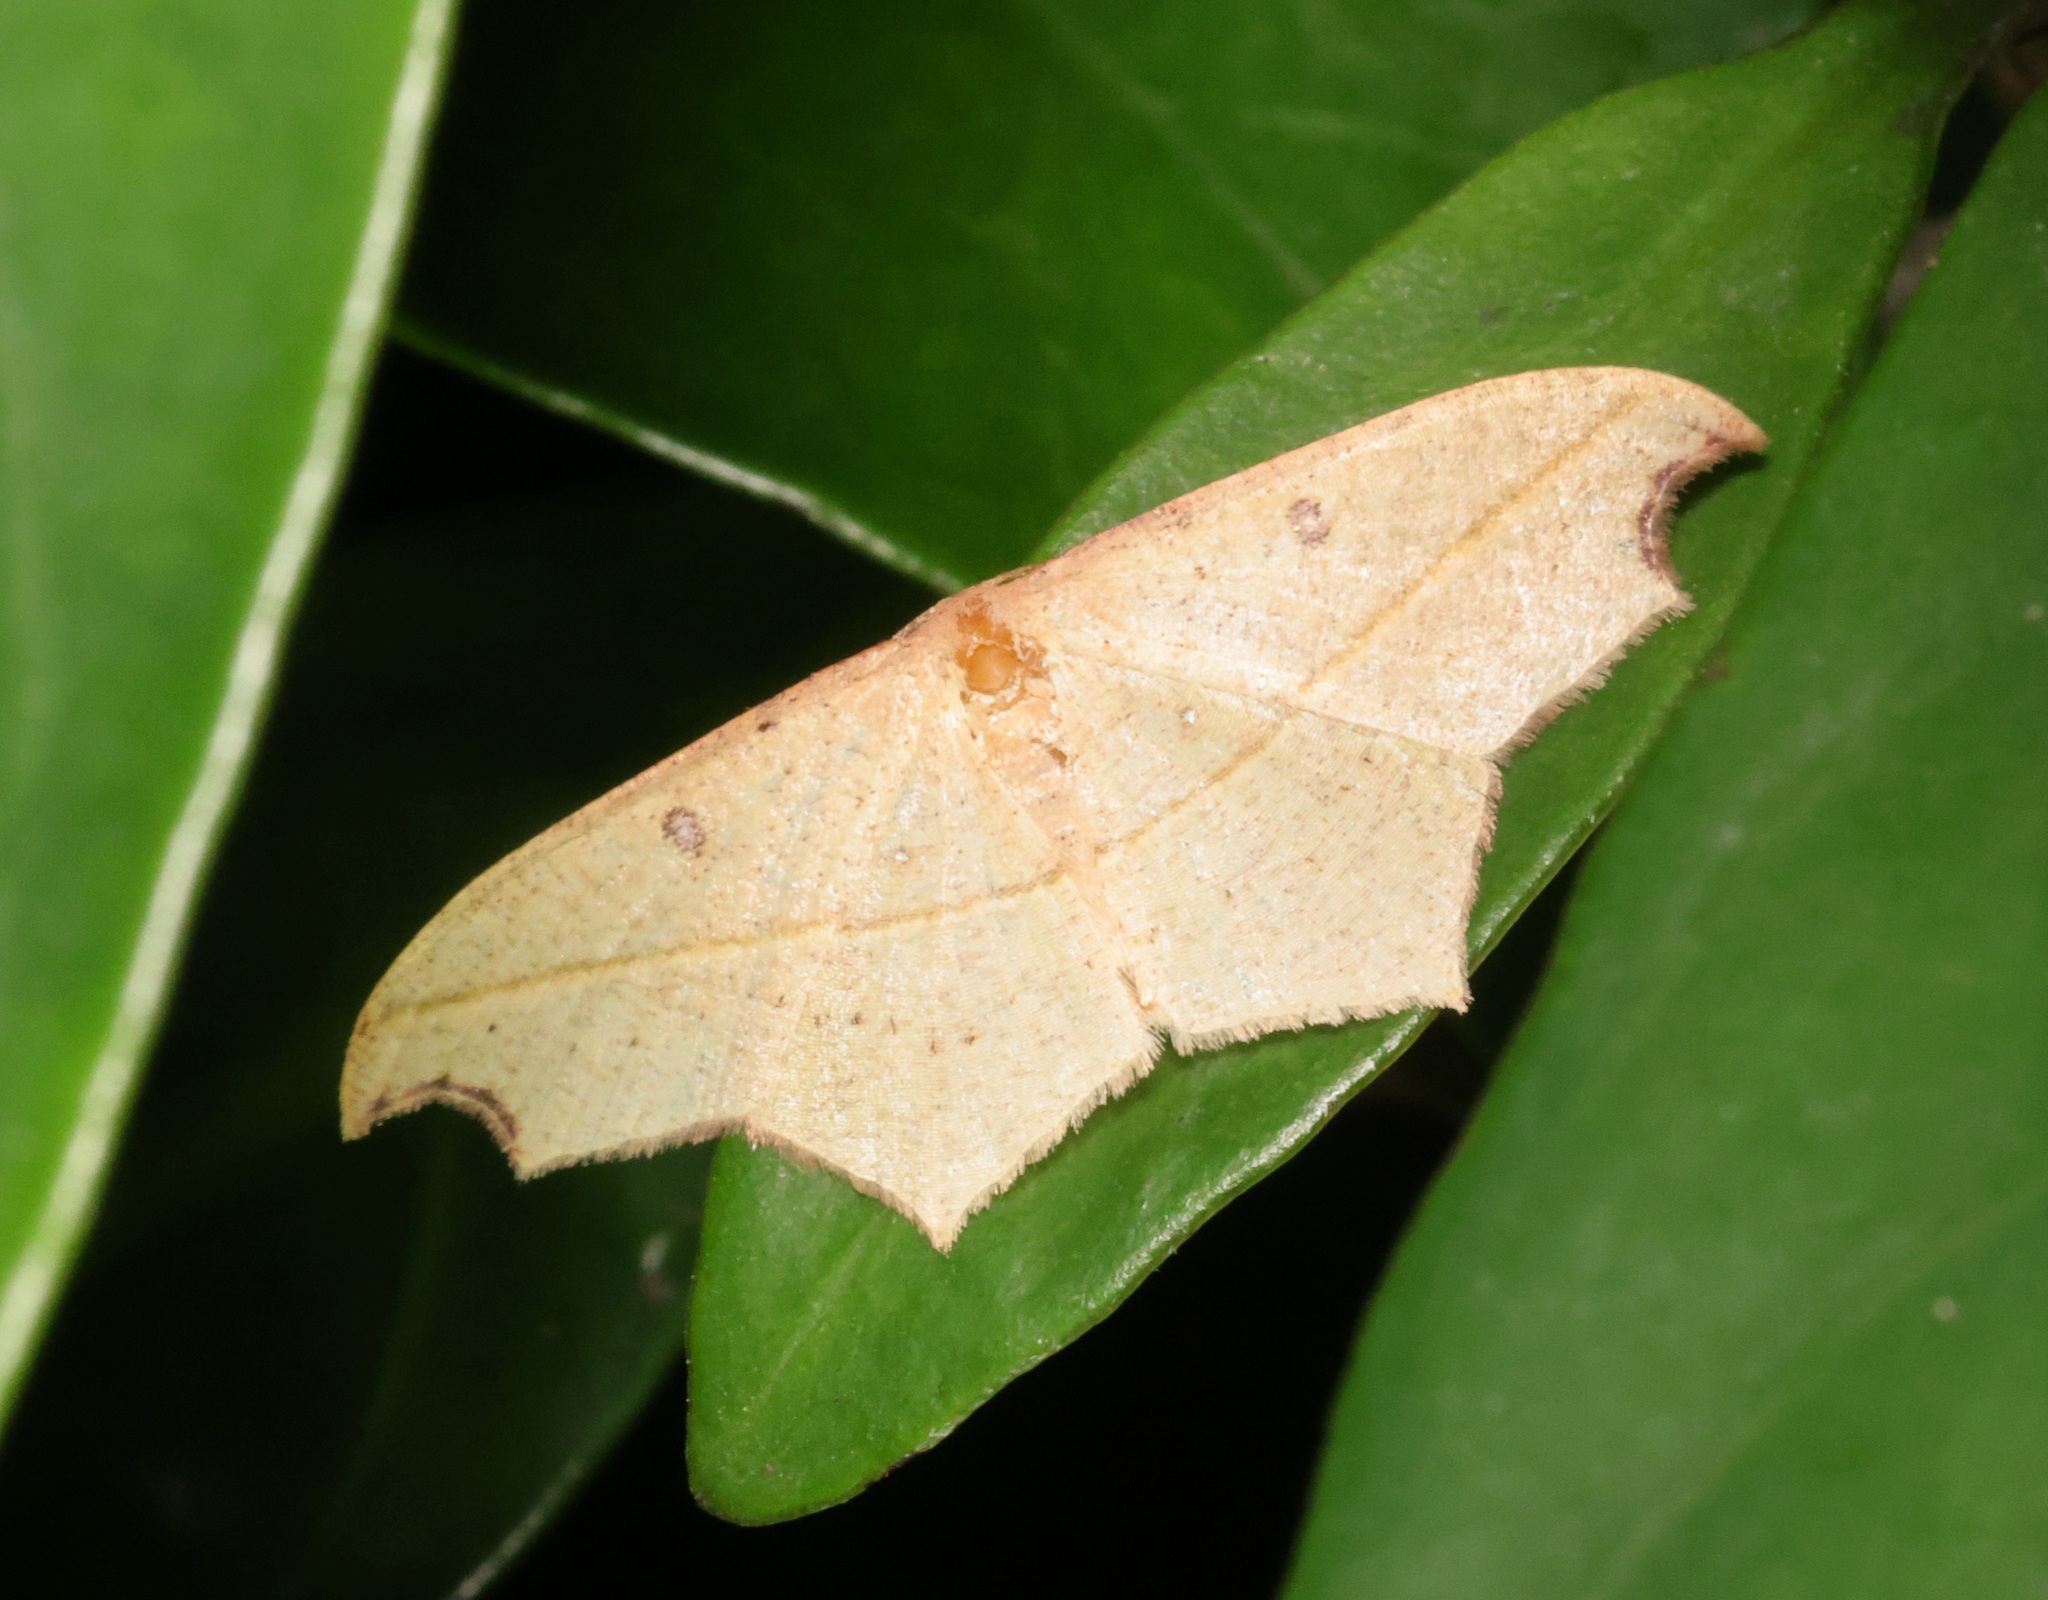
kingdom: Animalia
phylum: Arthropoda
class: Insecta
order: Lepidoptera
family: Geometridae
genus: Traminda
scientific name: Traminda aventiaria
